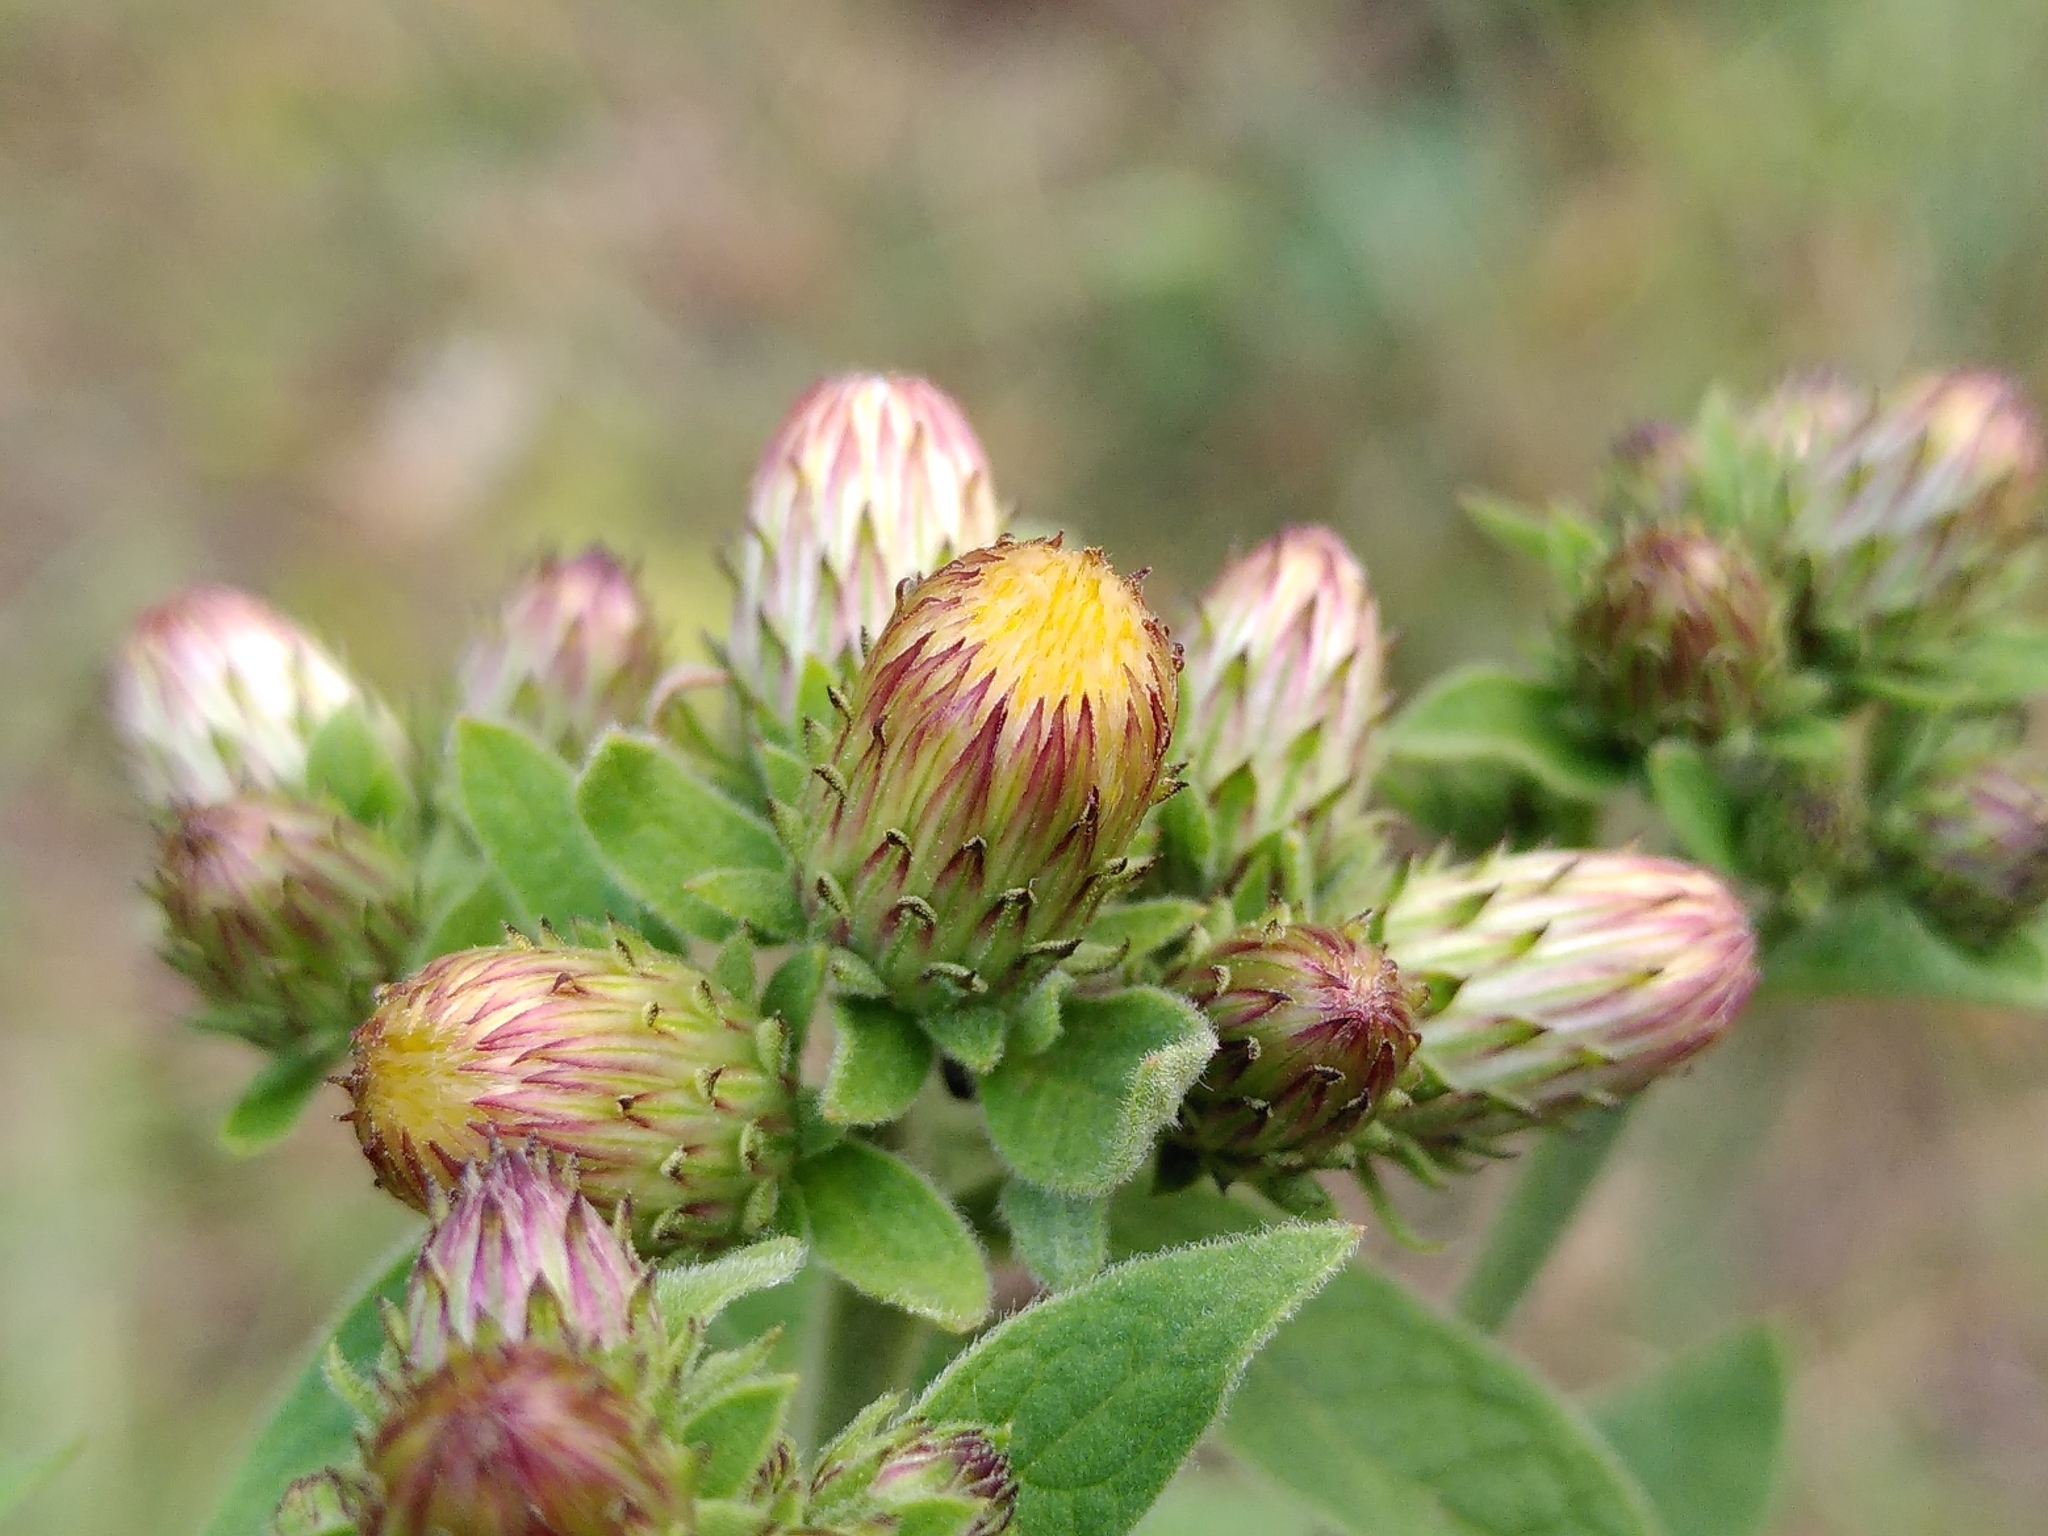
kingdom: Plantae
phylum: Tracheophyta
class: Magnoliopsida
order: Asterales
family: Asteraceae
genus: Pentanema
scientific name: Pentanema squarrosum
